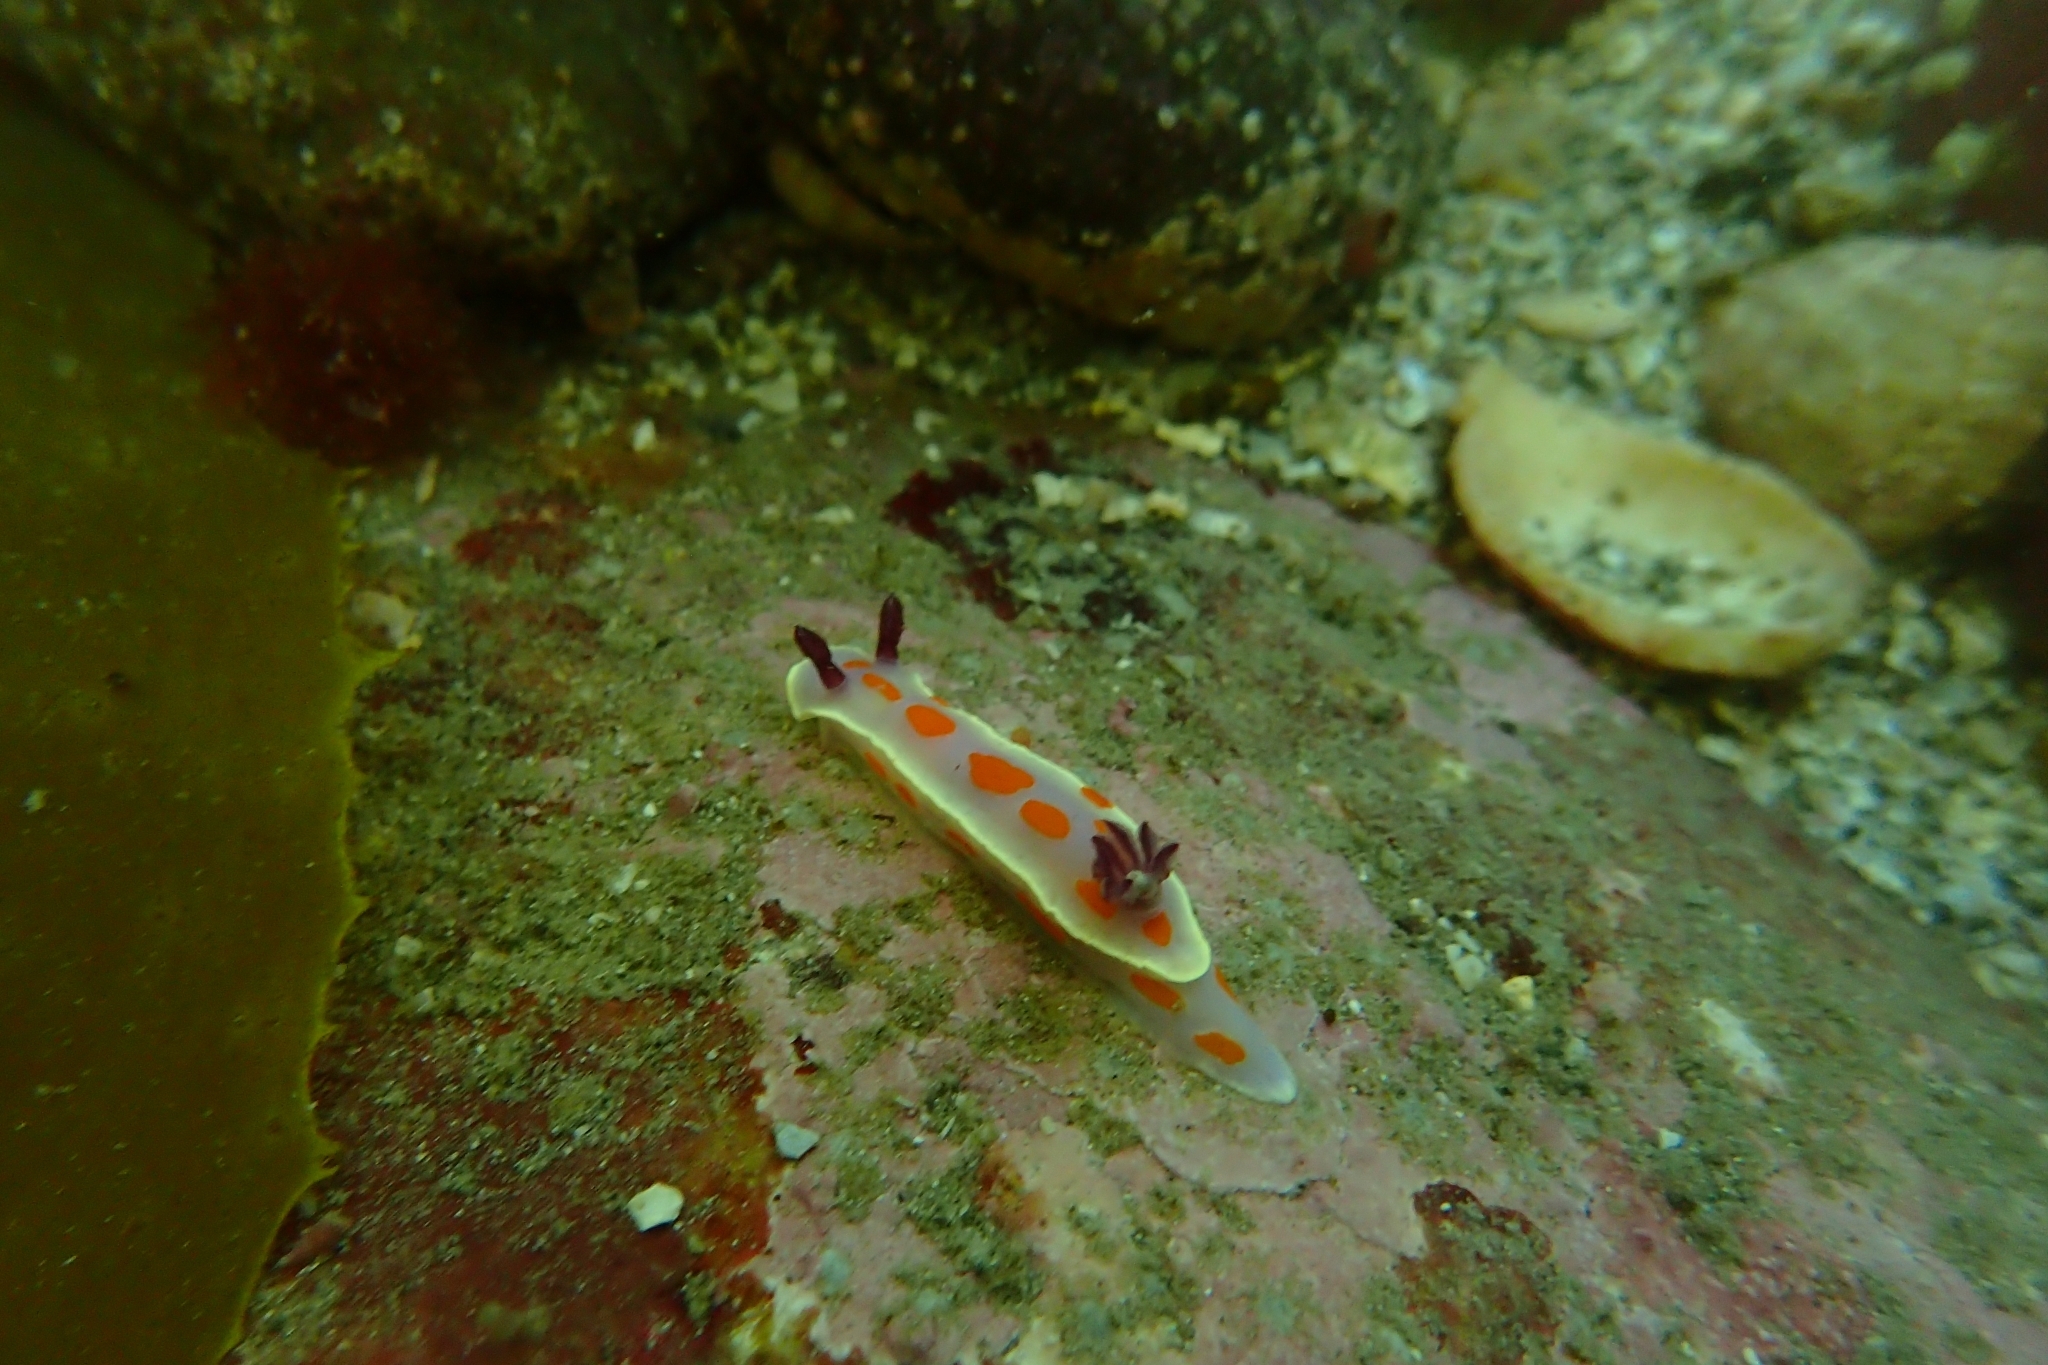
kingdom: Animalia
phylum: Mollusca
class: Gastropoda
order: Nudibranchia
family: Chromodorididae
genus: Ceratosoma
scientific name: Ceratosoma amoenum
